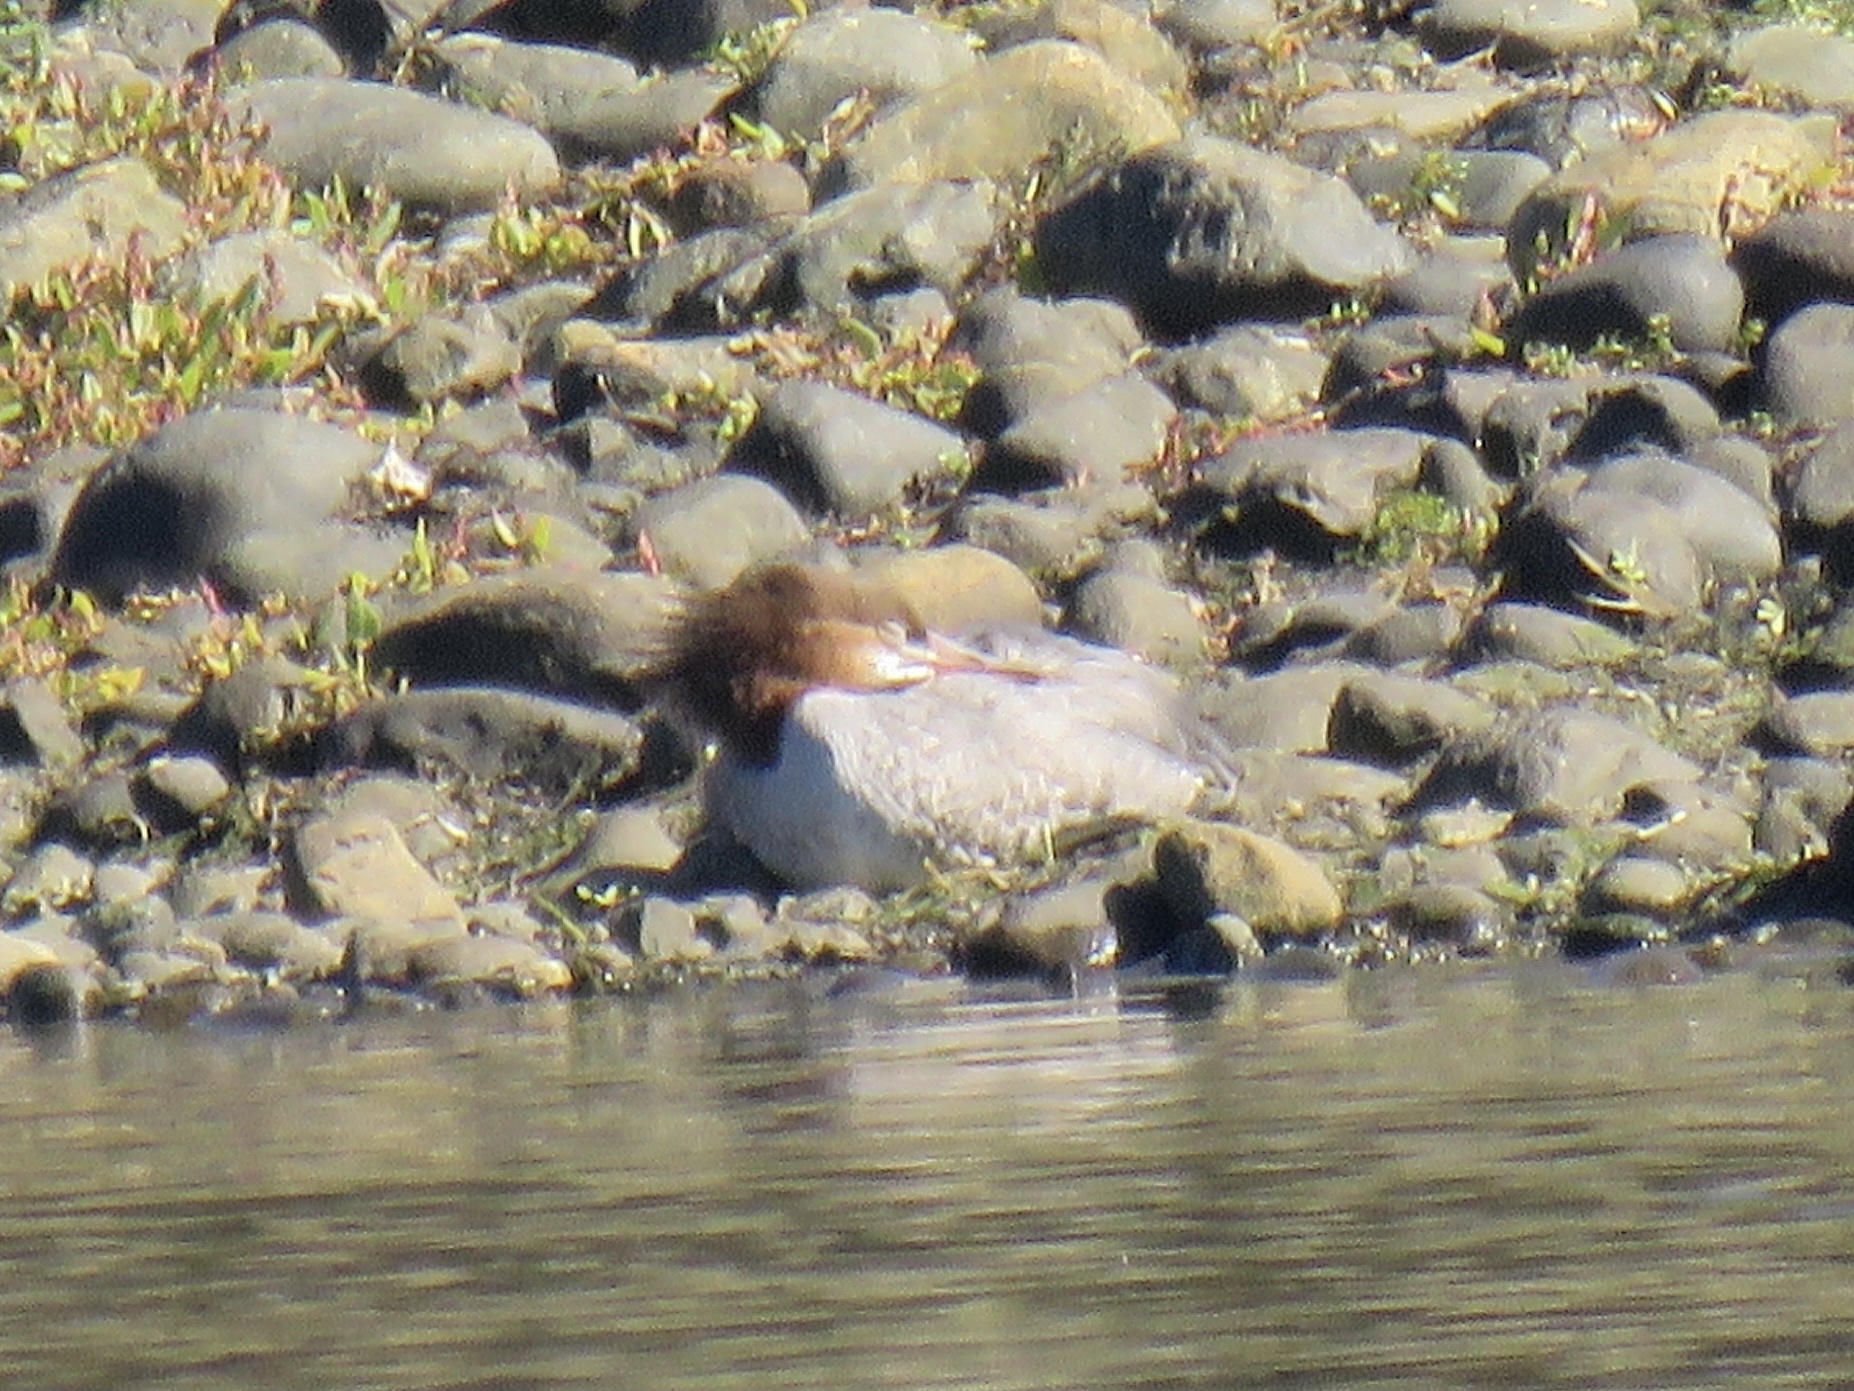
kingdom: Animalia
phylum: Chordata
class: Aves
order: Anseriformes
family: Anatidae
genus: Mergus
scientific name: Mergus merganser
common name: Common merganser
